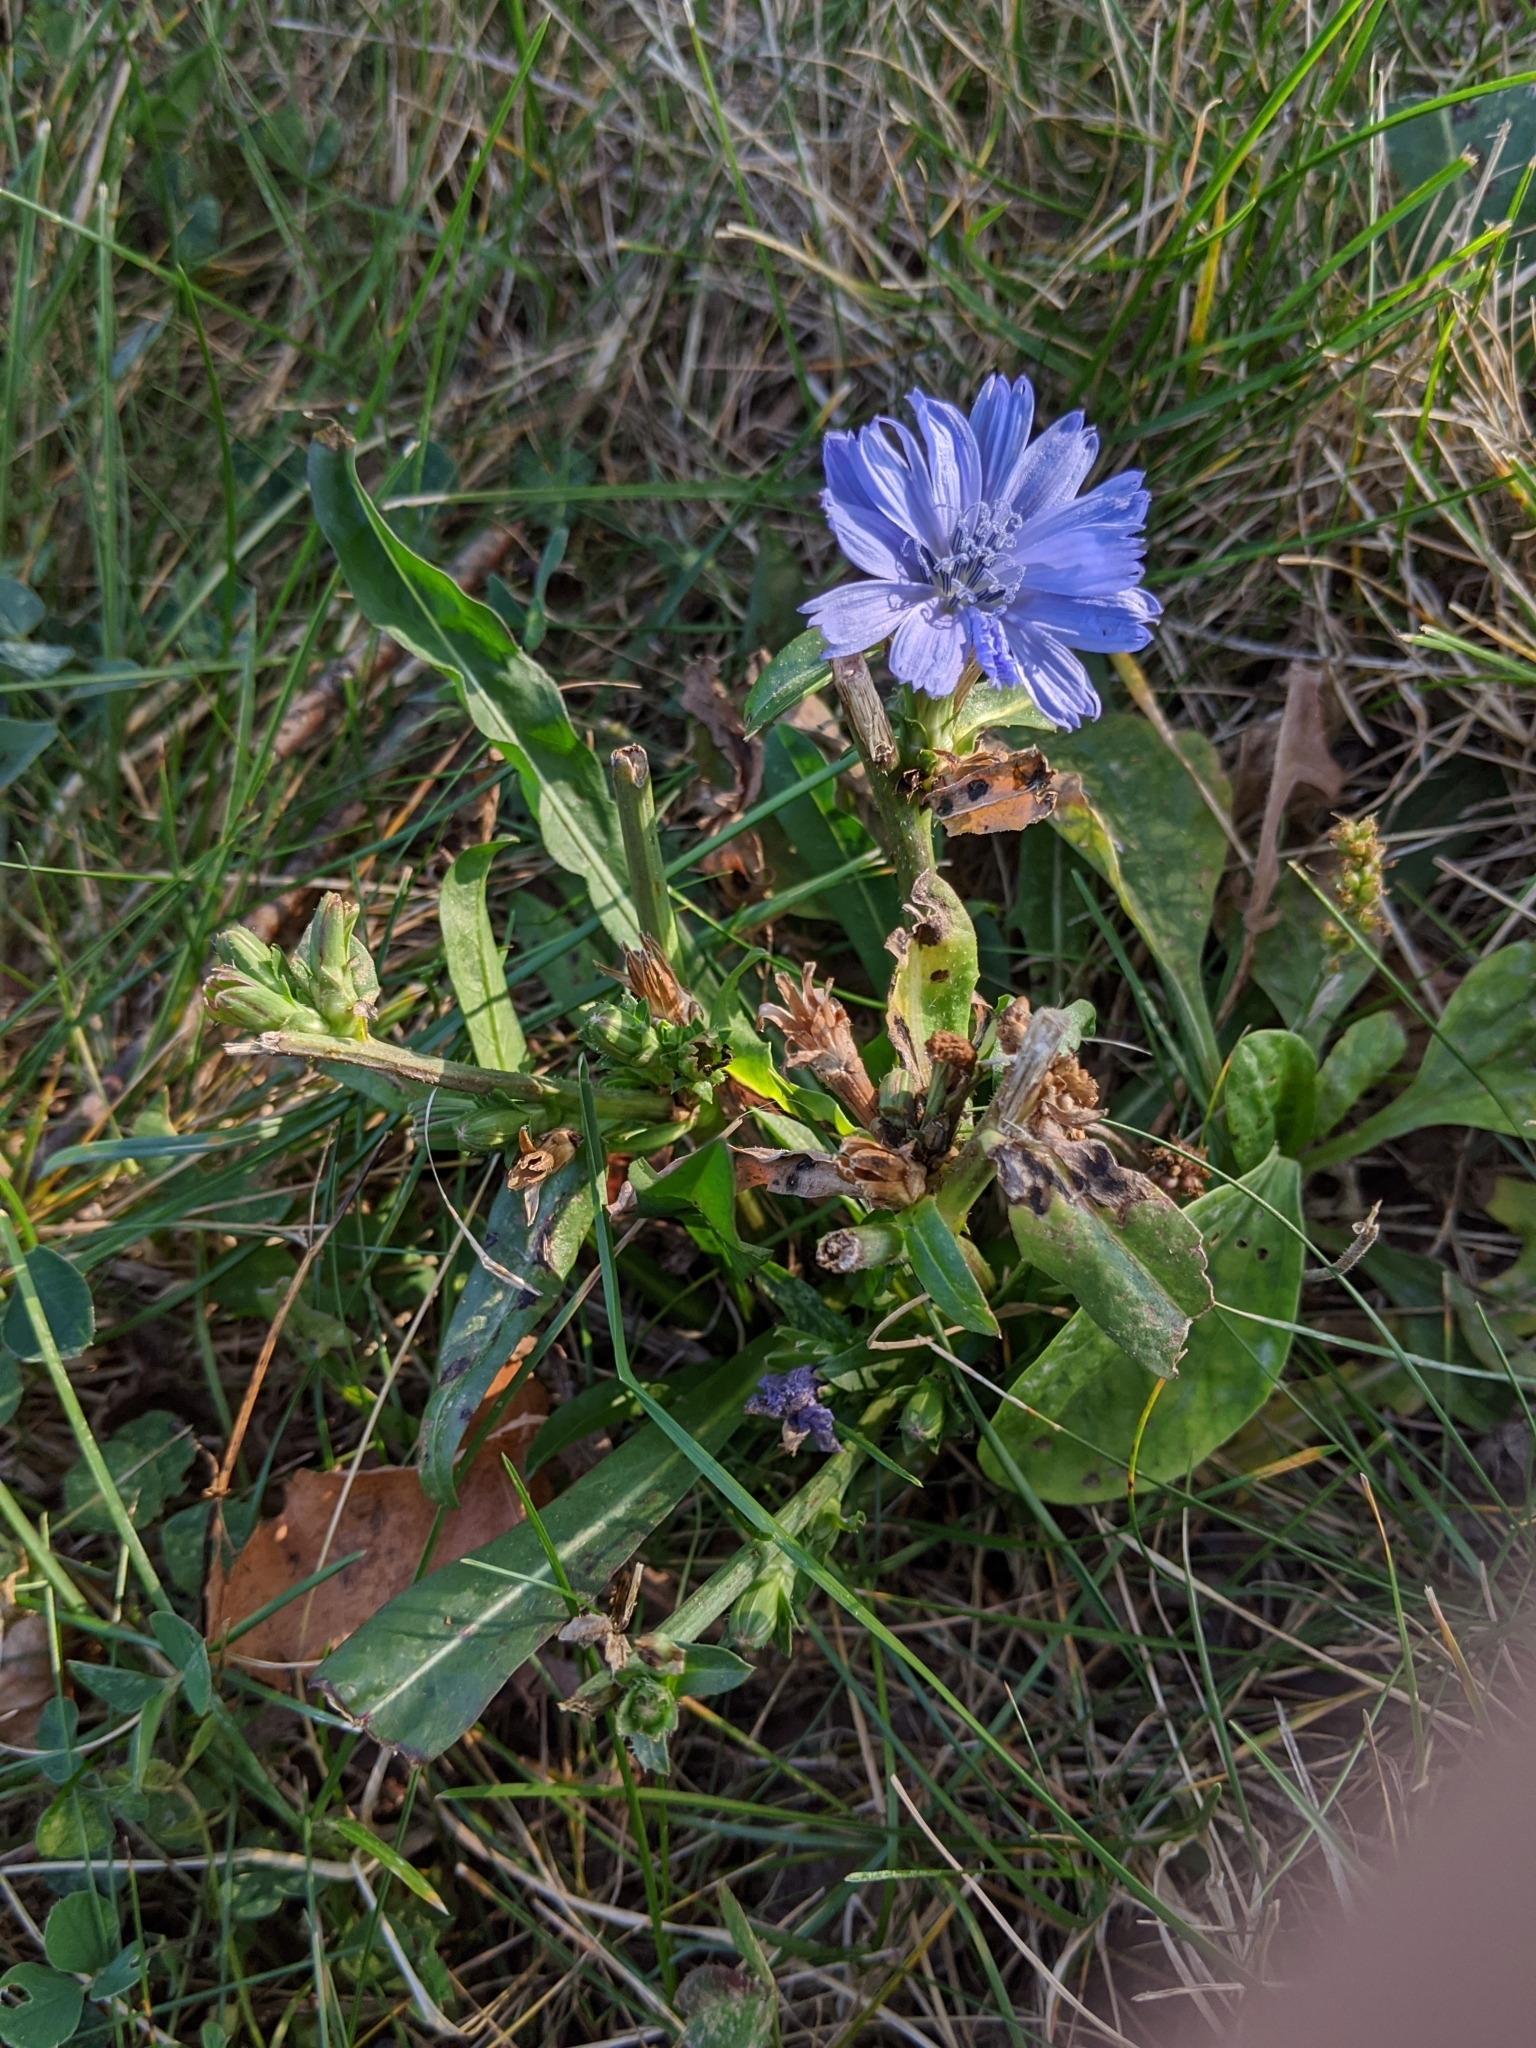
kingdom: Plantae
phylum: Tracheophyta
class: Magnoliopsida
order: Asterales
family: Asteraceae
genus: Cichorium
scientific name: Cichorium intybus
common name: Chicory
